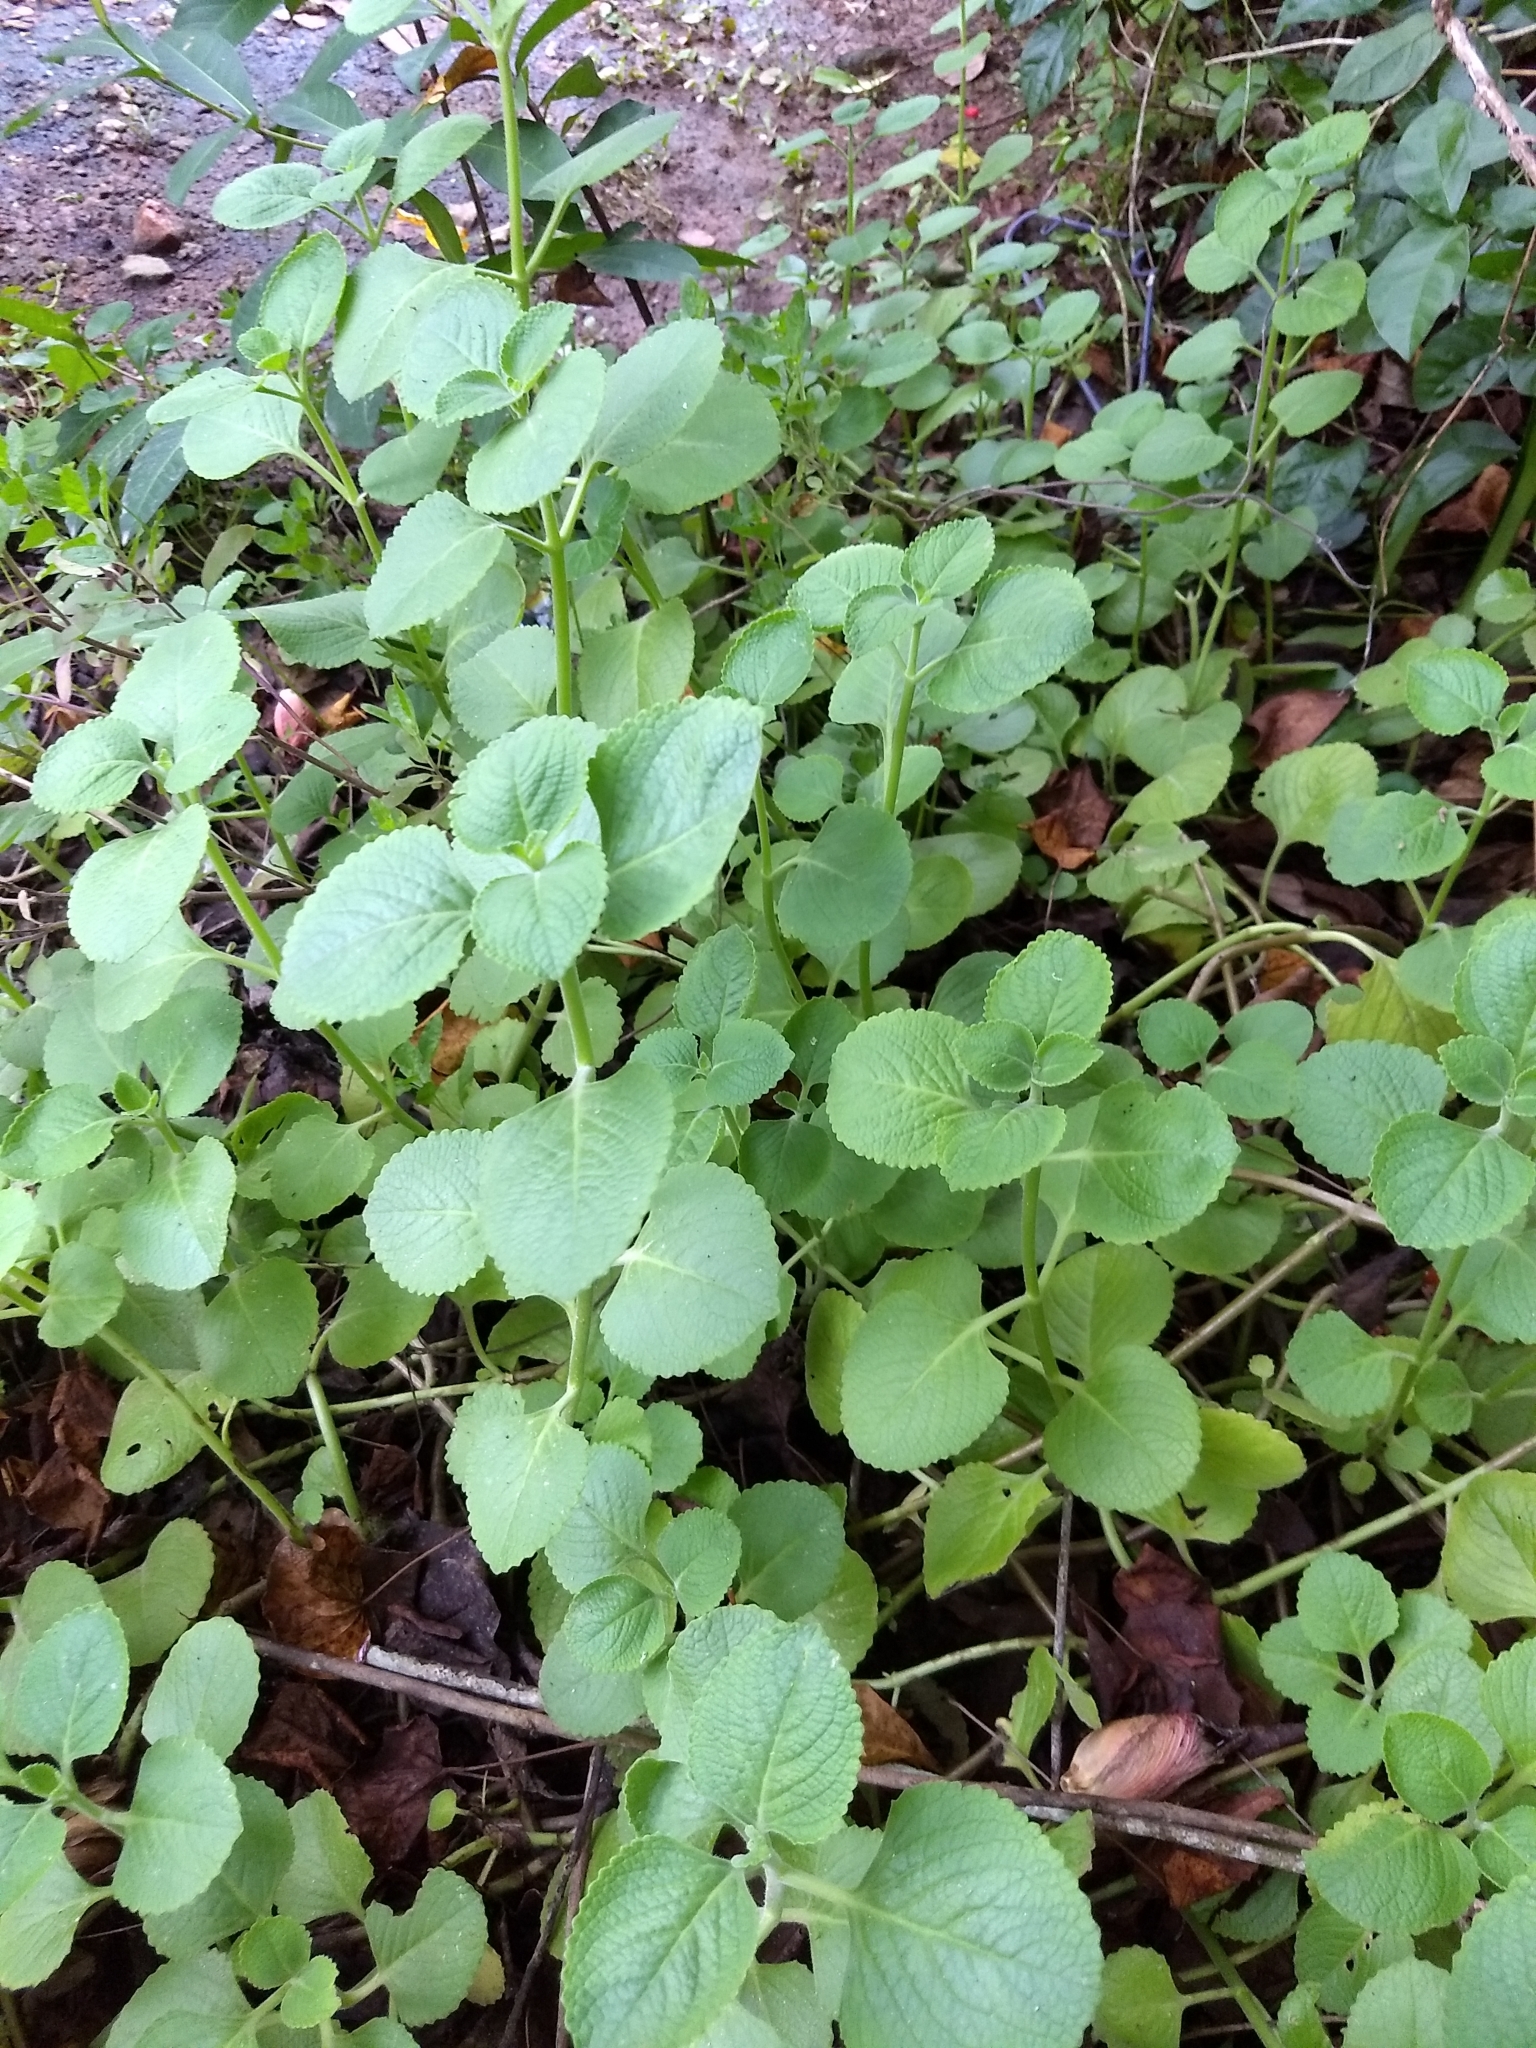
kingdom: Plantae
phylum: Tracheophyta
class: Magnoliopsida
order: Lamiales
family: Lamiaceae
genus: Coleus
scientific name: Coleus amboinicus
